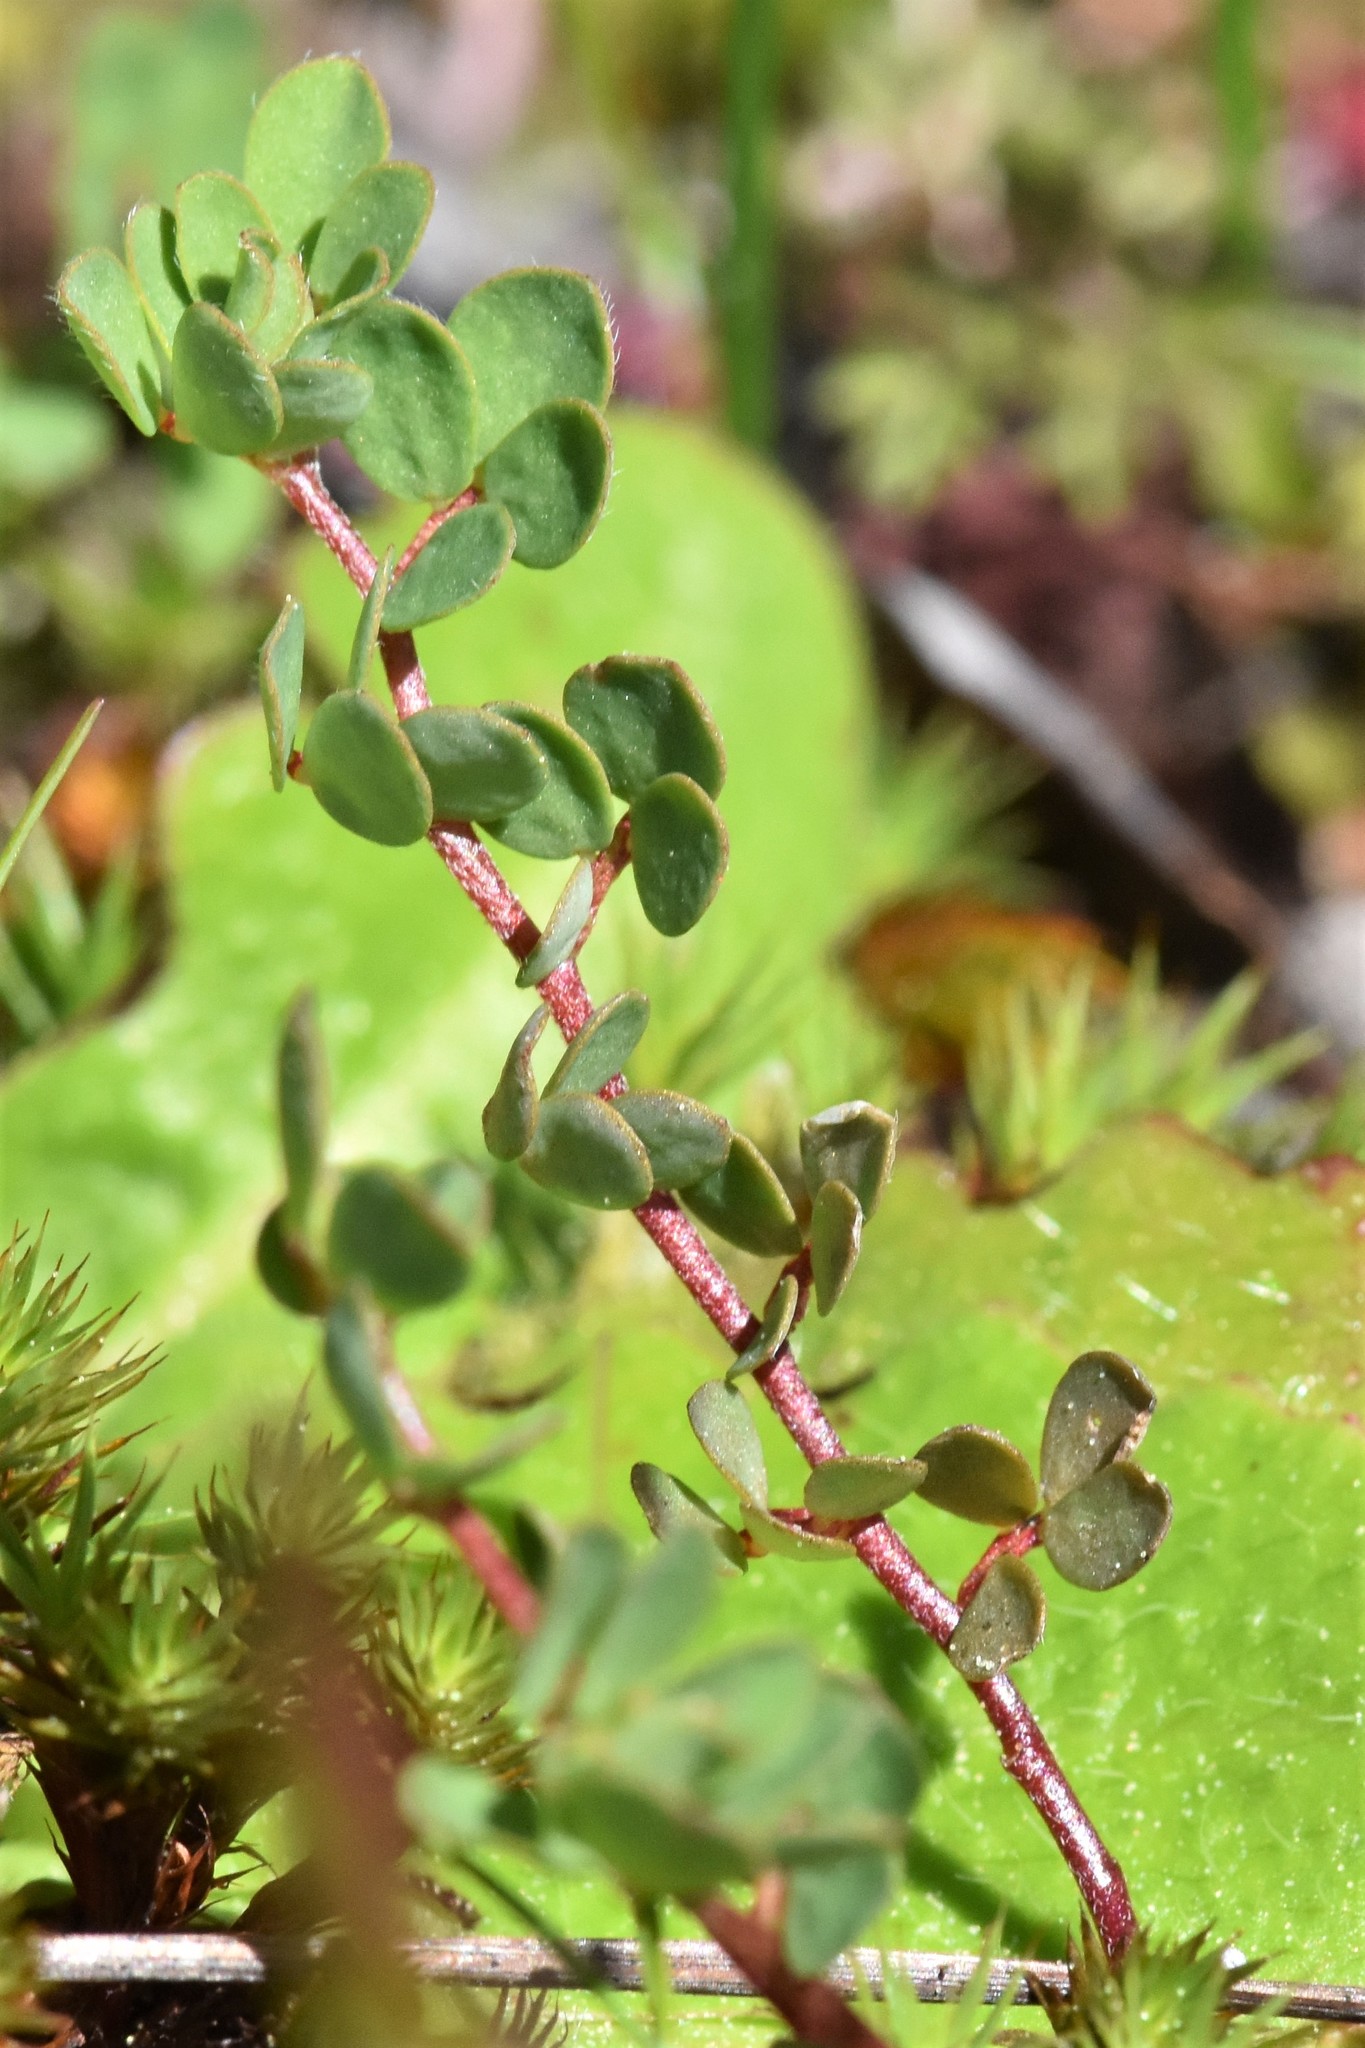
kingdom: Plantae
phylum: Tracheophyta
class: Magnoliopsida
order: Fabales
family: Fabaceae
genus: Acmispon
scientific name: Acmispon parviflorus
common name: Desert deer-vetch
